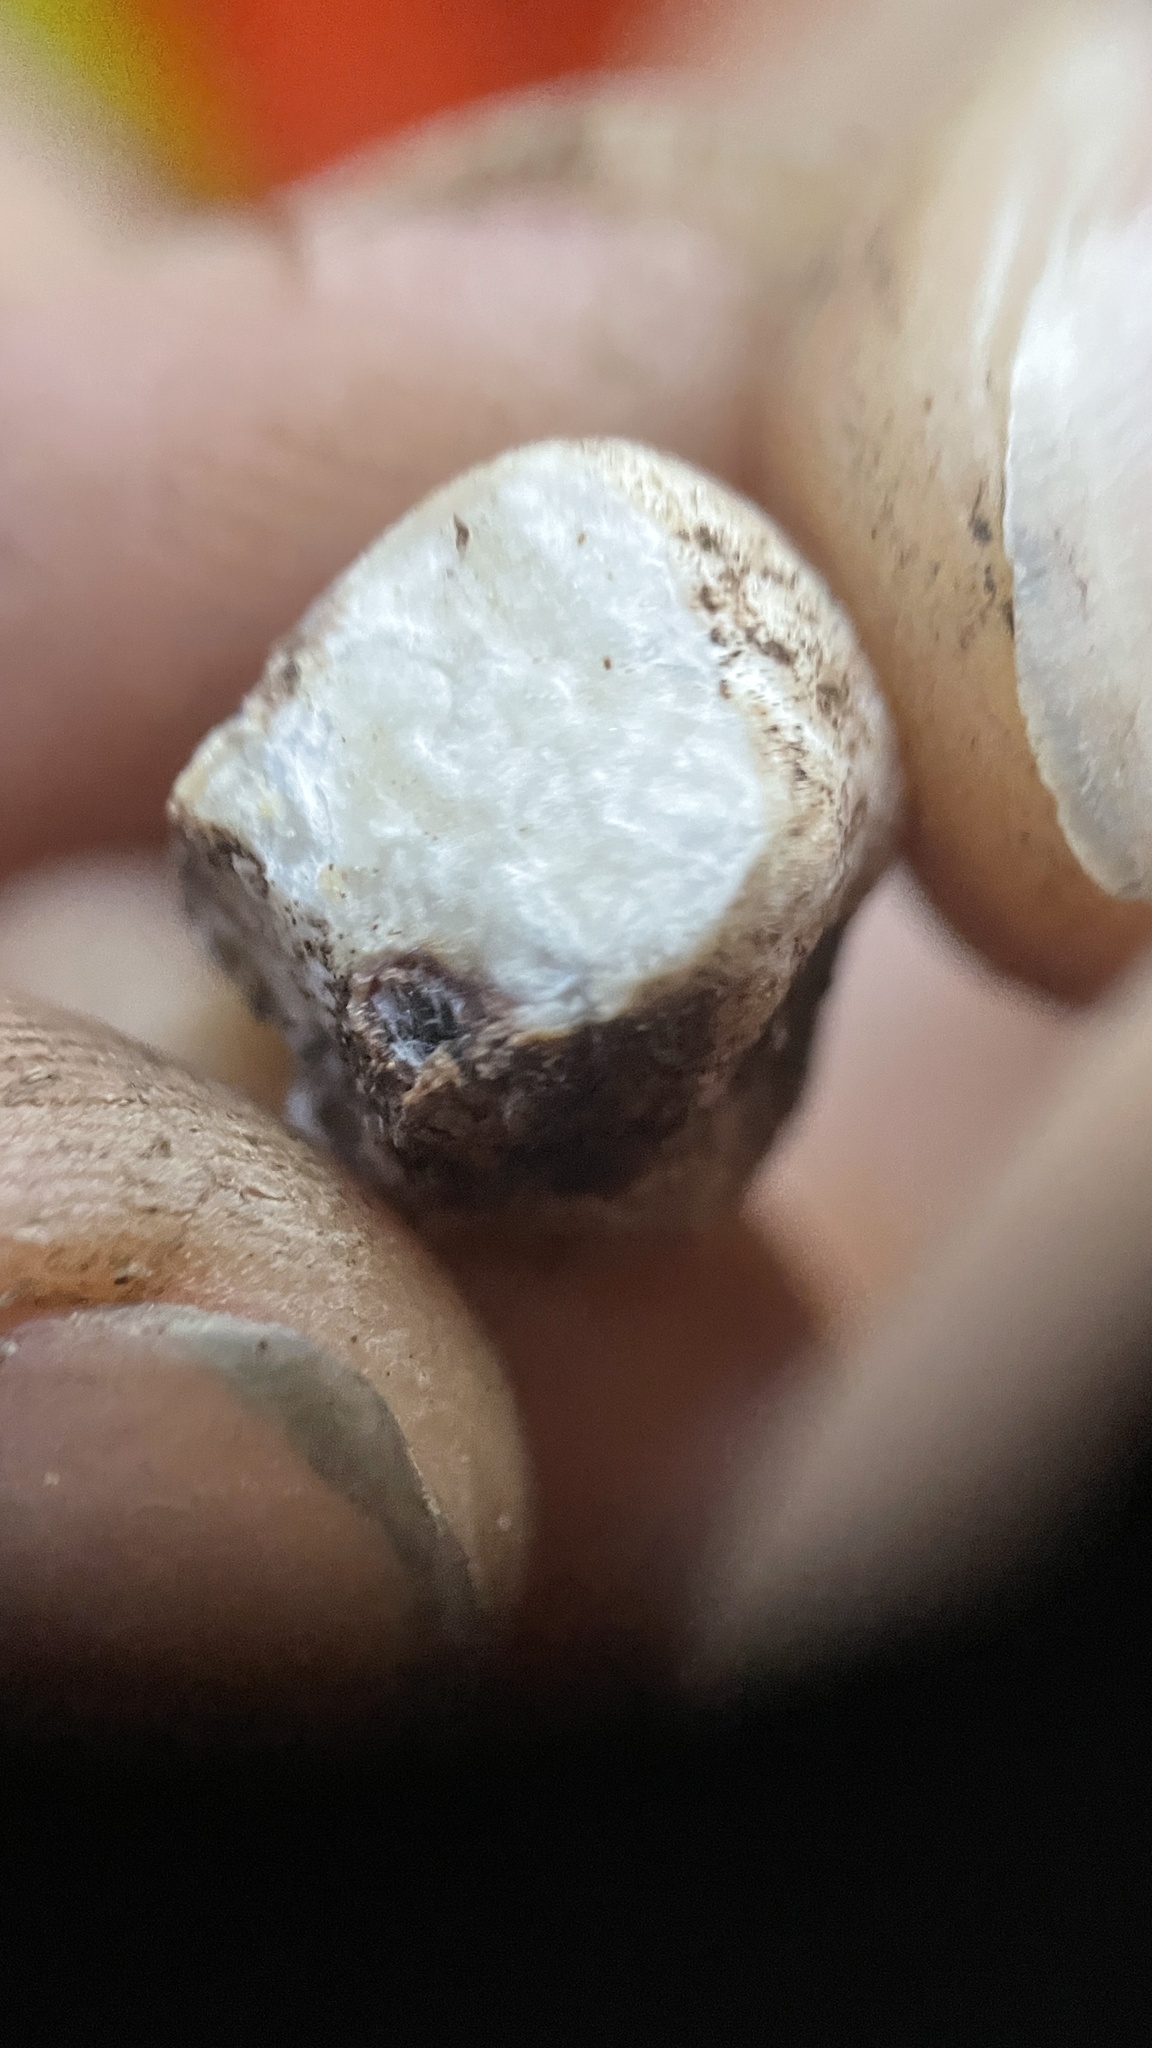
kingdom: Fungi
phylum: Ascomycota
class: Pezizomycetes
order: Pezizales
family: Tuberaceae
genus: Tuber
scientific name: Tuber bellisporum
